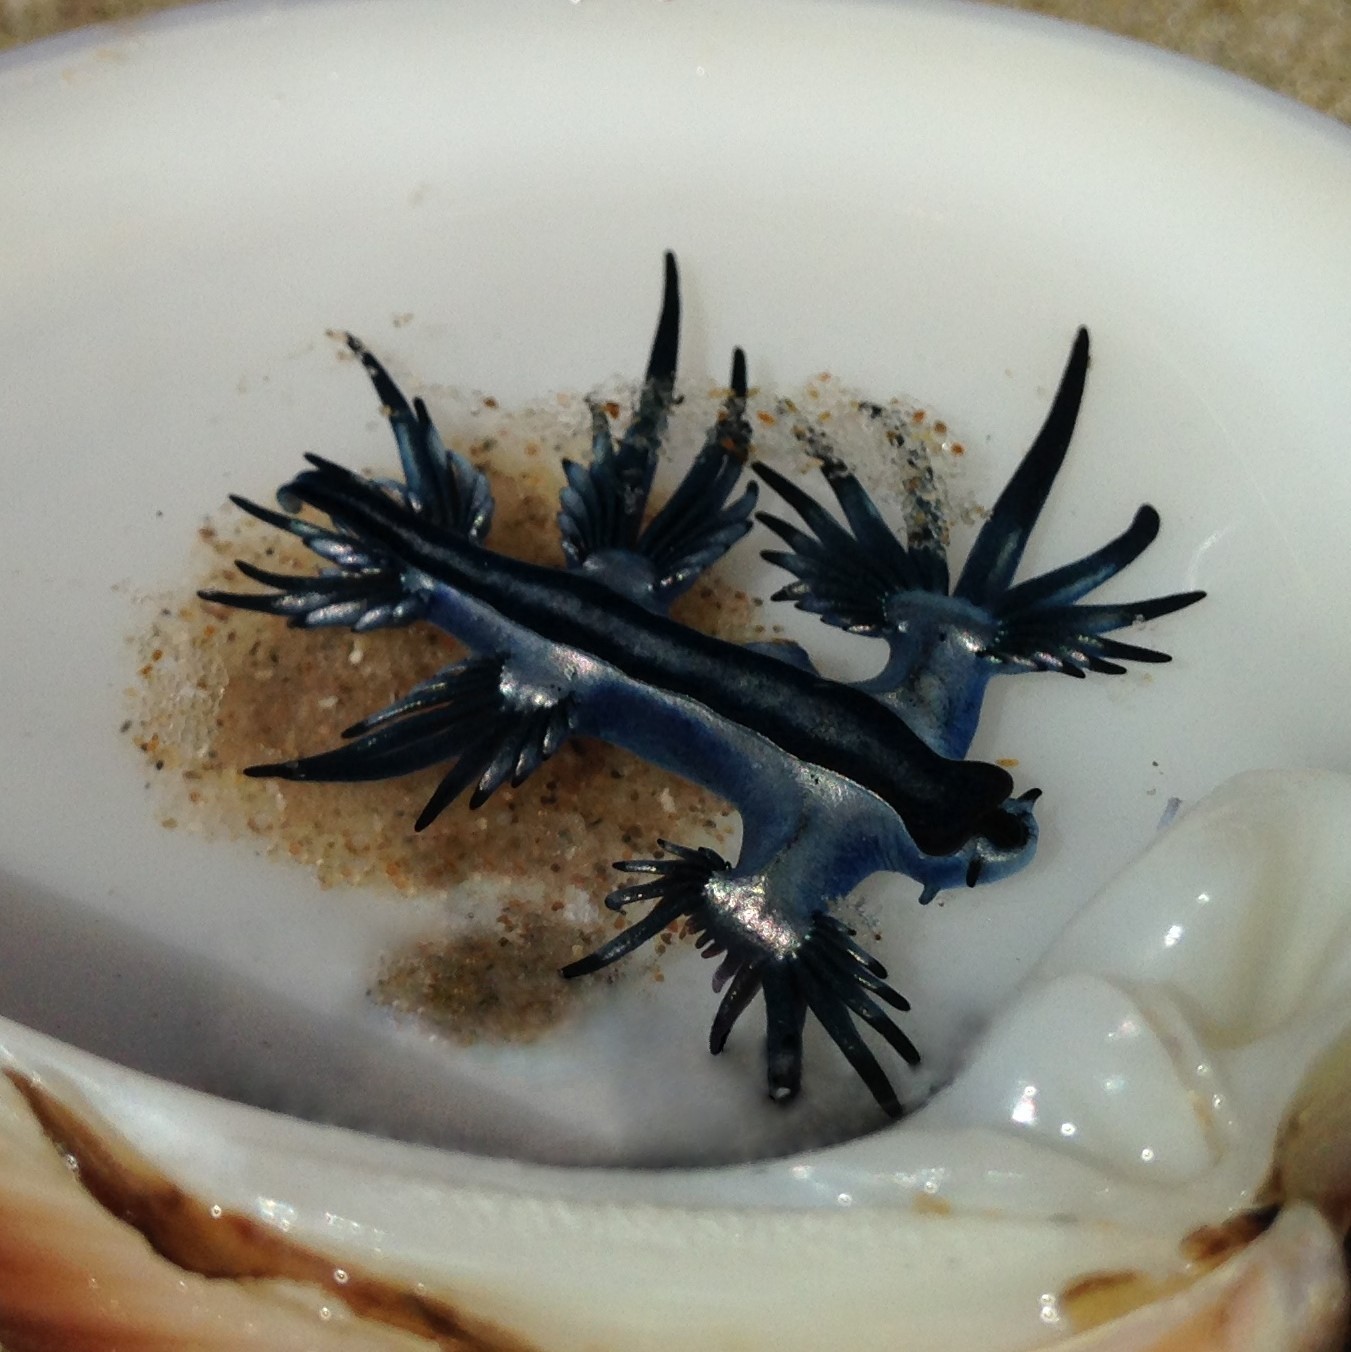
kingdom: Animalia
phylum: Mollusca
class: Gastropoda
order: Nudibranchia
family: Glaucidae
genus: Glaucus
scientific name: Glaucus atlanticus
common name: Purple ocean slug
